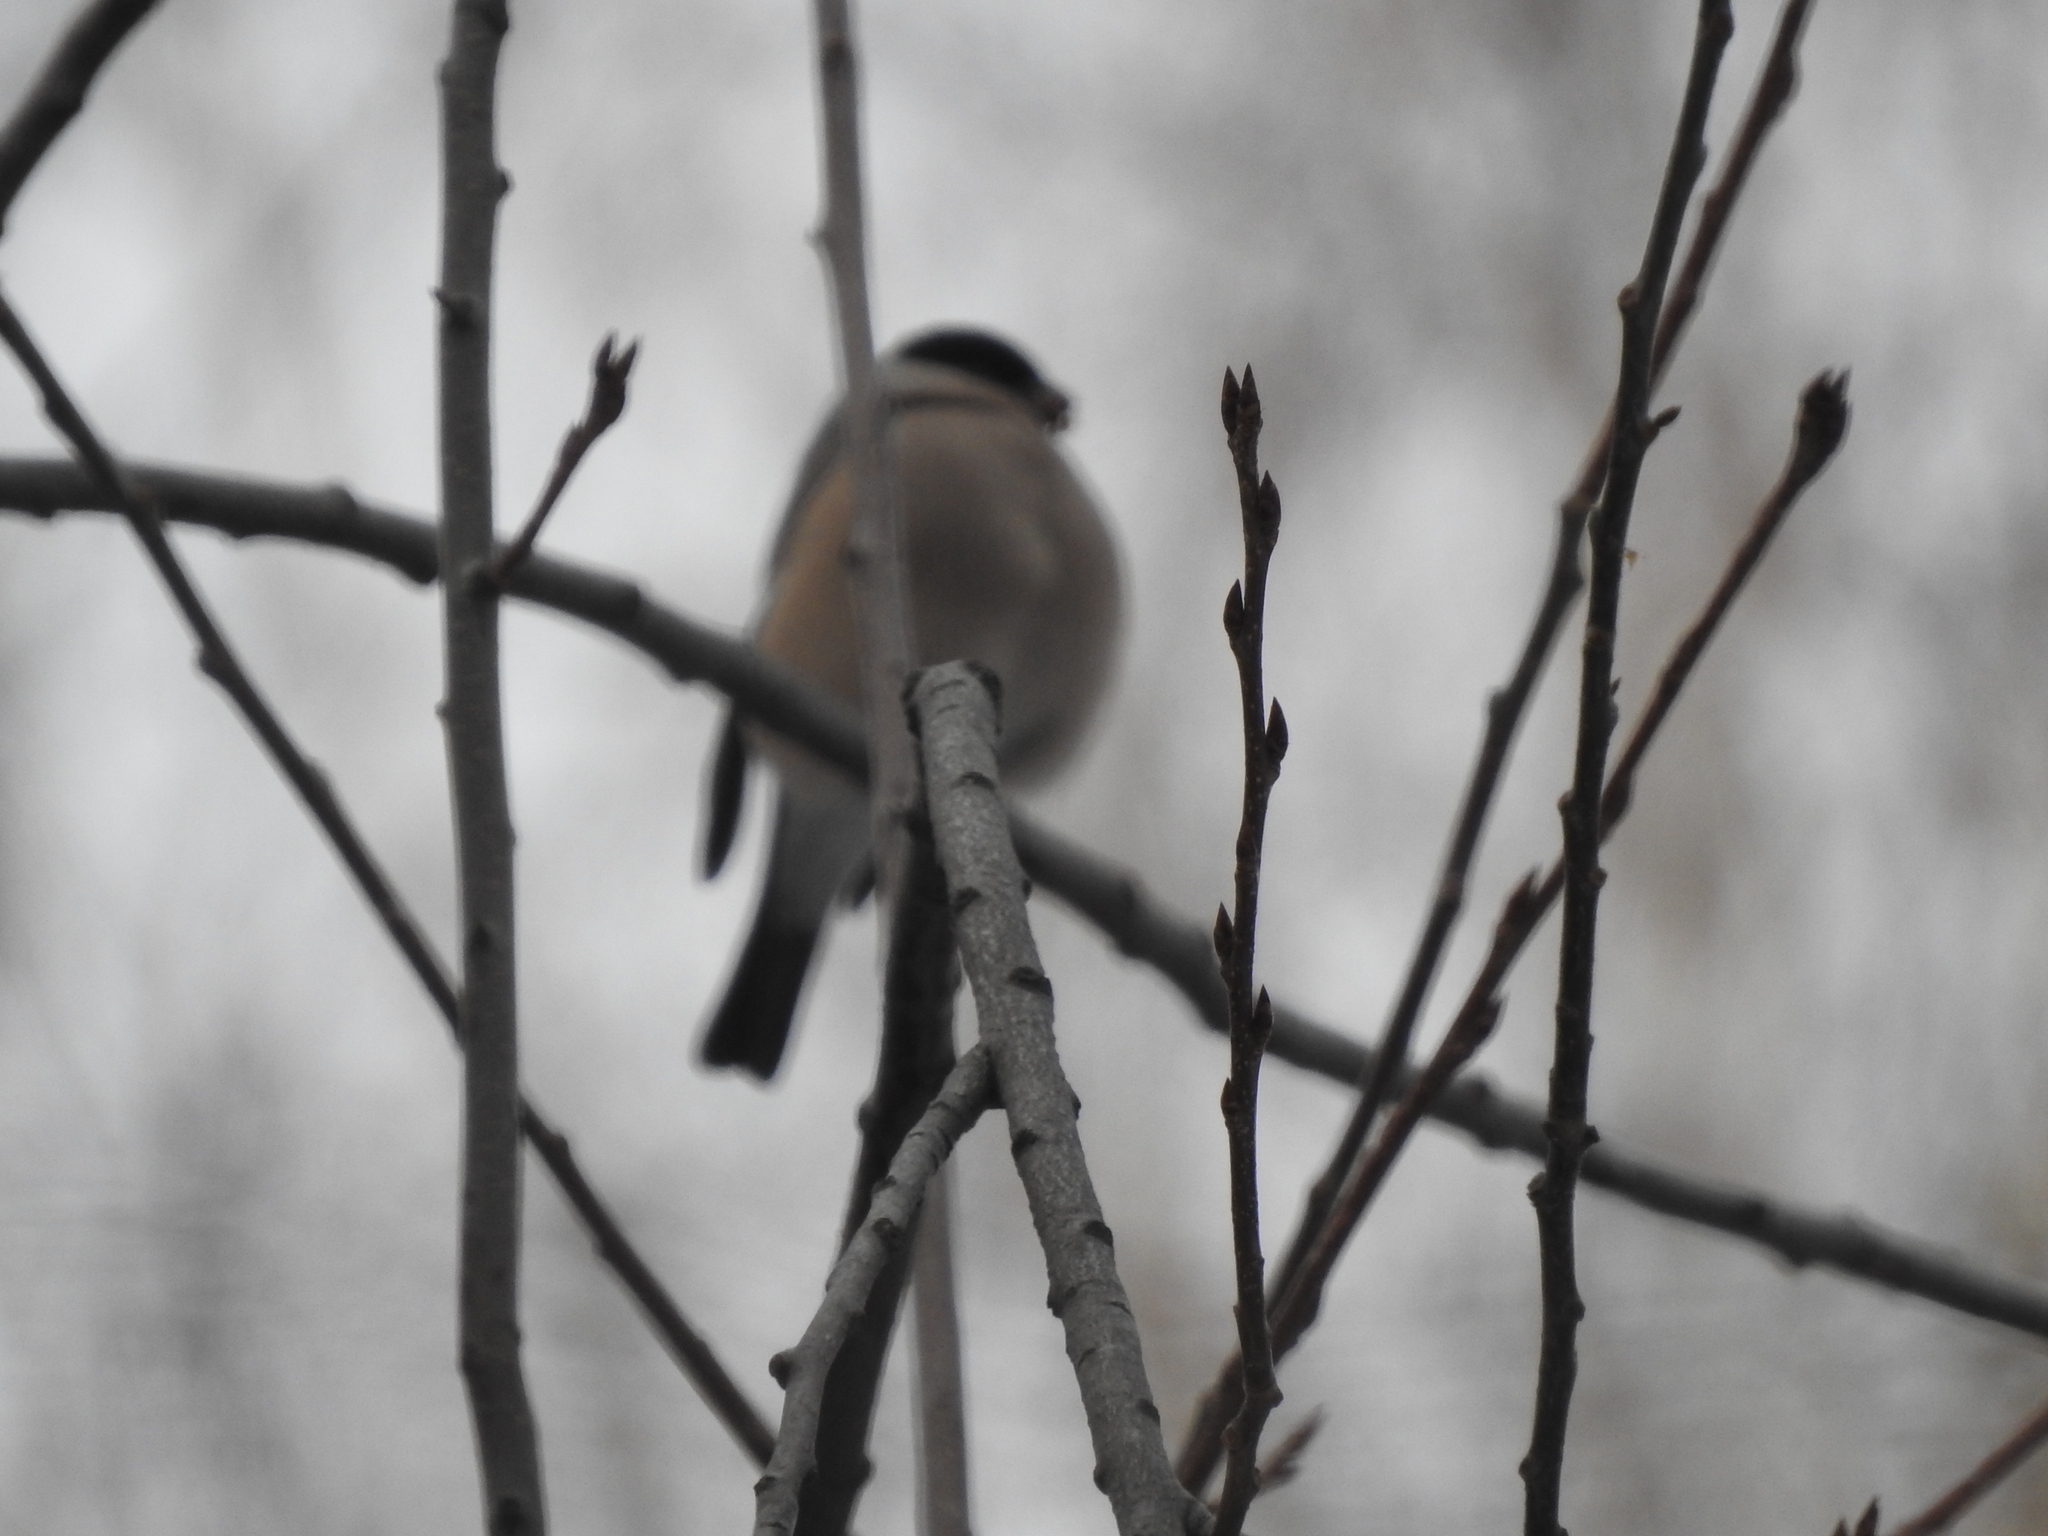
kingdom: Animalia
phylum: Chordata
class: Aves
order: Passeriformes
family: Fringillidae
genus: Pyrrhula
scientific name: Pyrrhula pyrrhula
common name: Eurasian bullfinch
